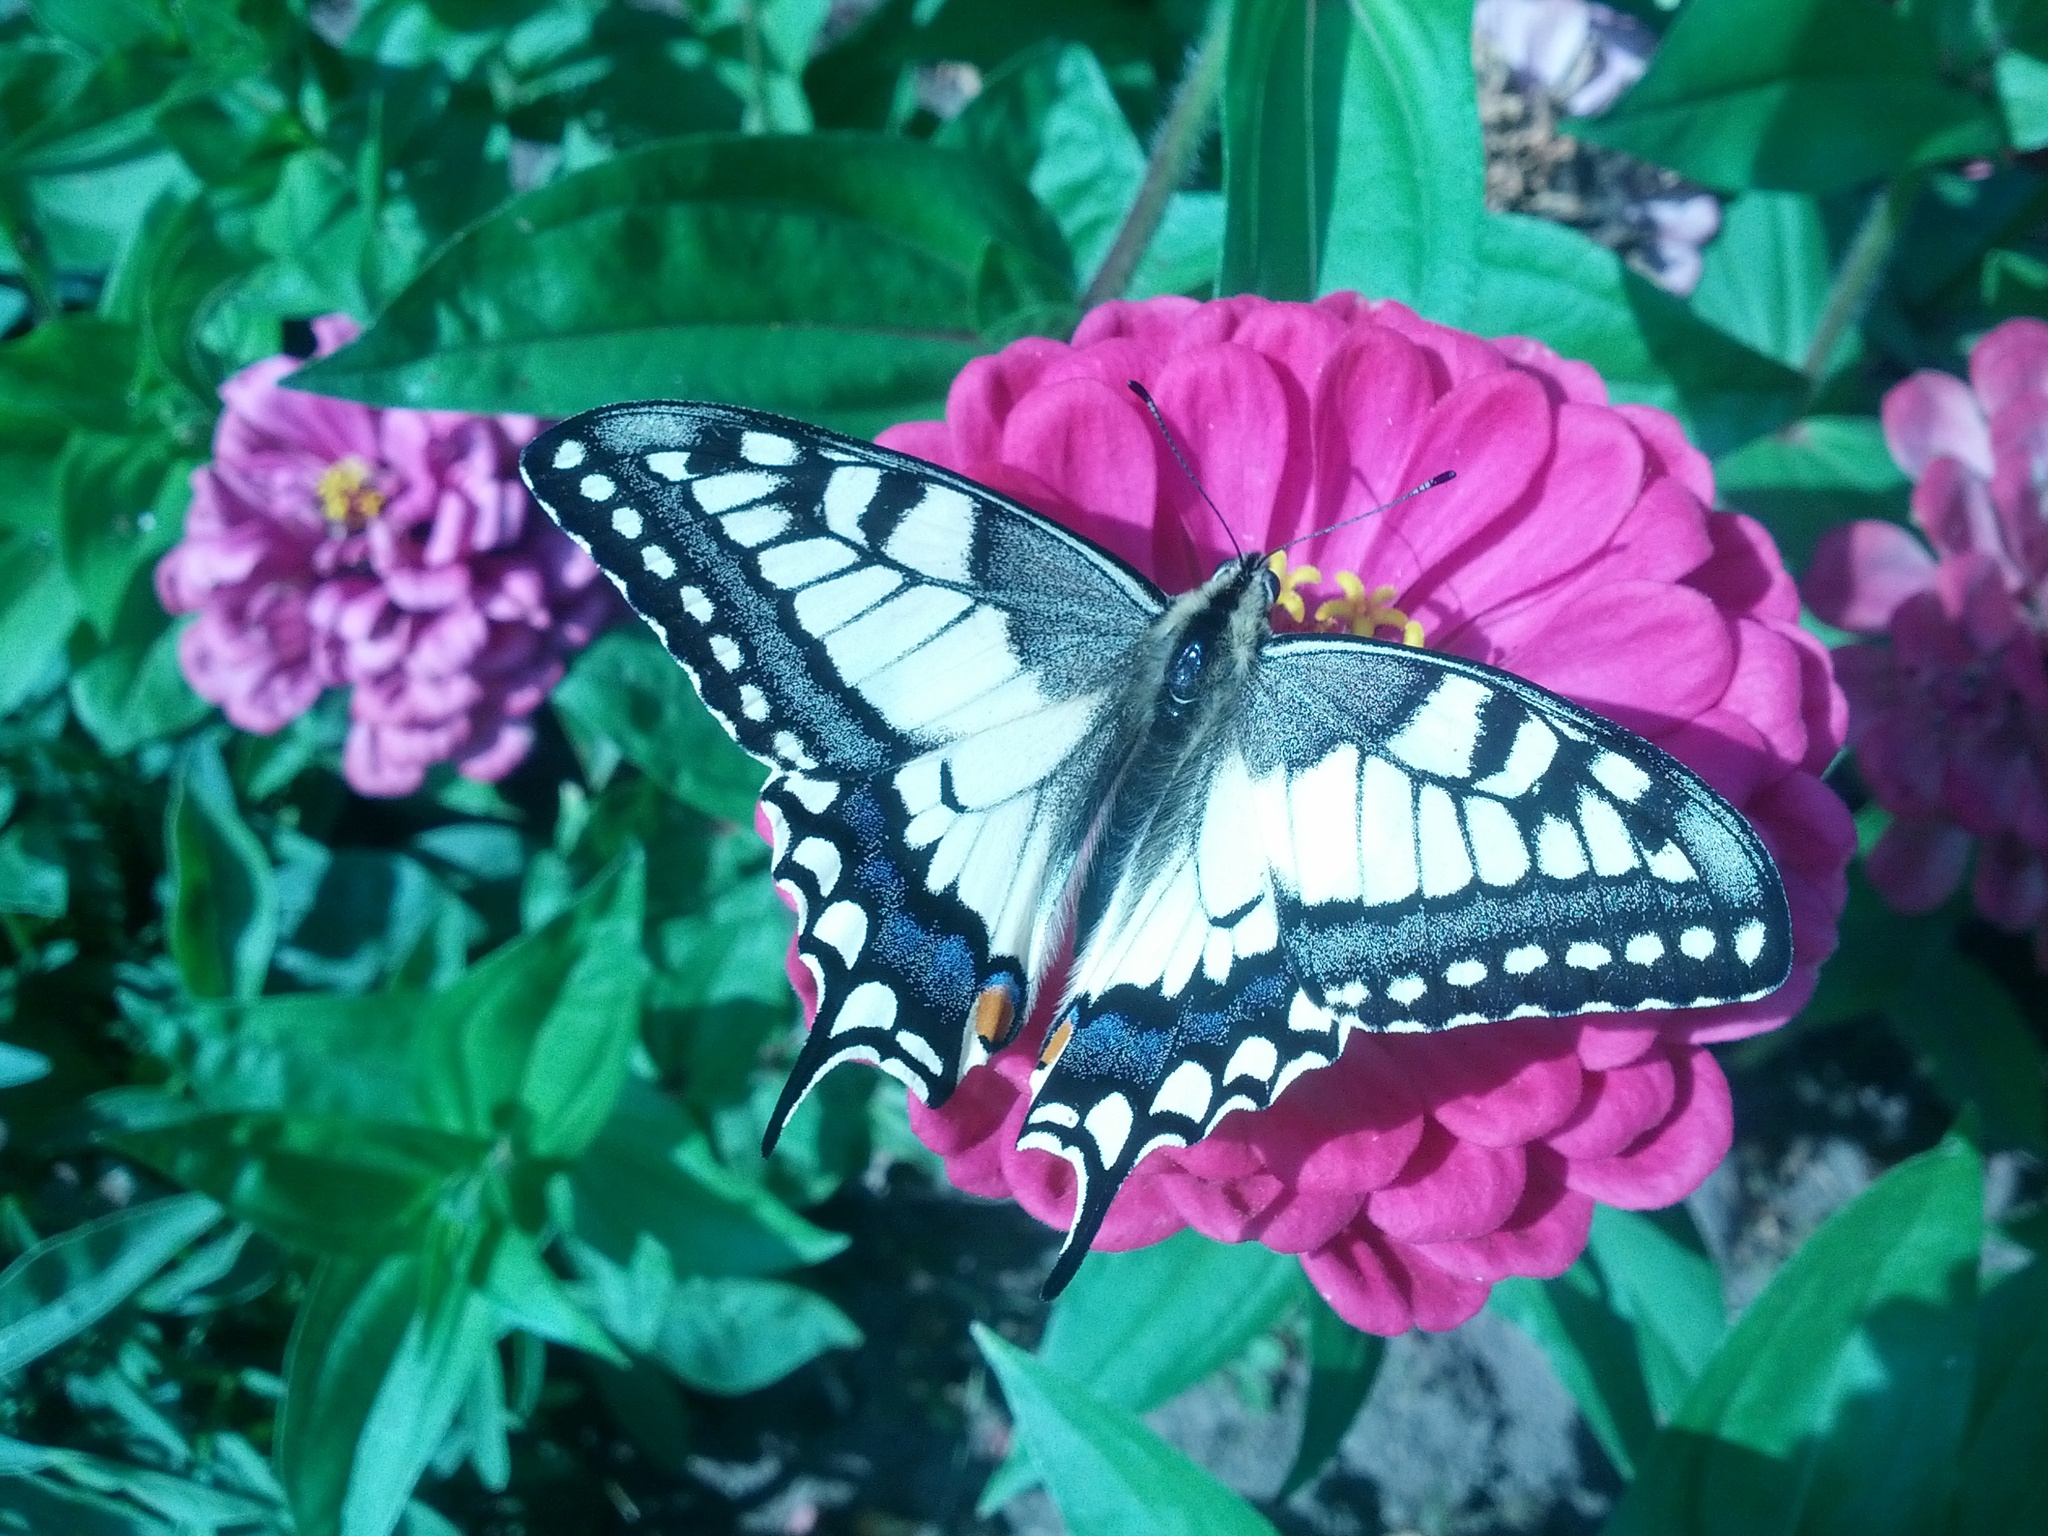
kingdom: Animalia
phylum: Arthropoda
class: Insecta
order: Lepidoptera
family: Papilionidae
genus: Papilio
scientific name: Papilio machaon
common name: Swallowtail
